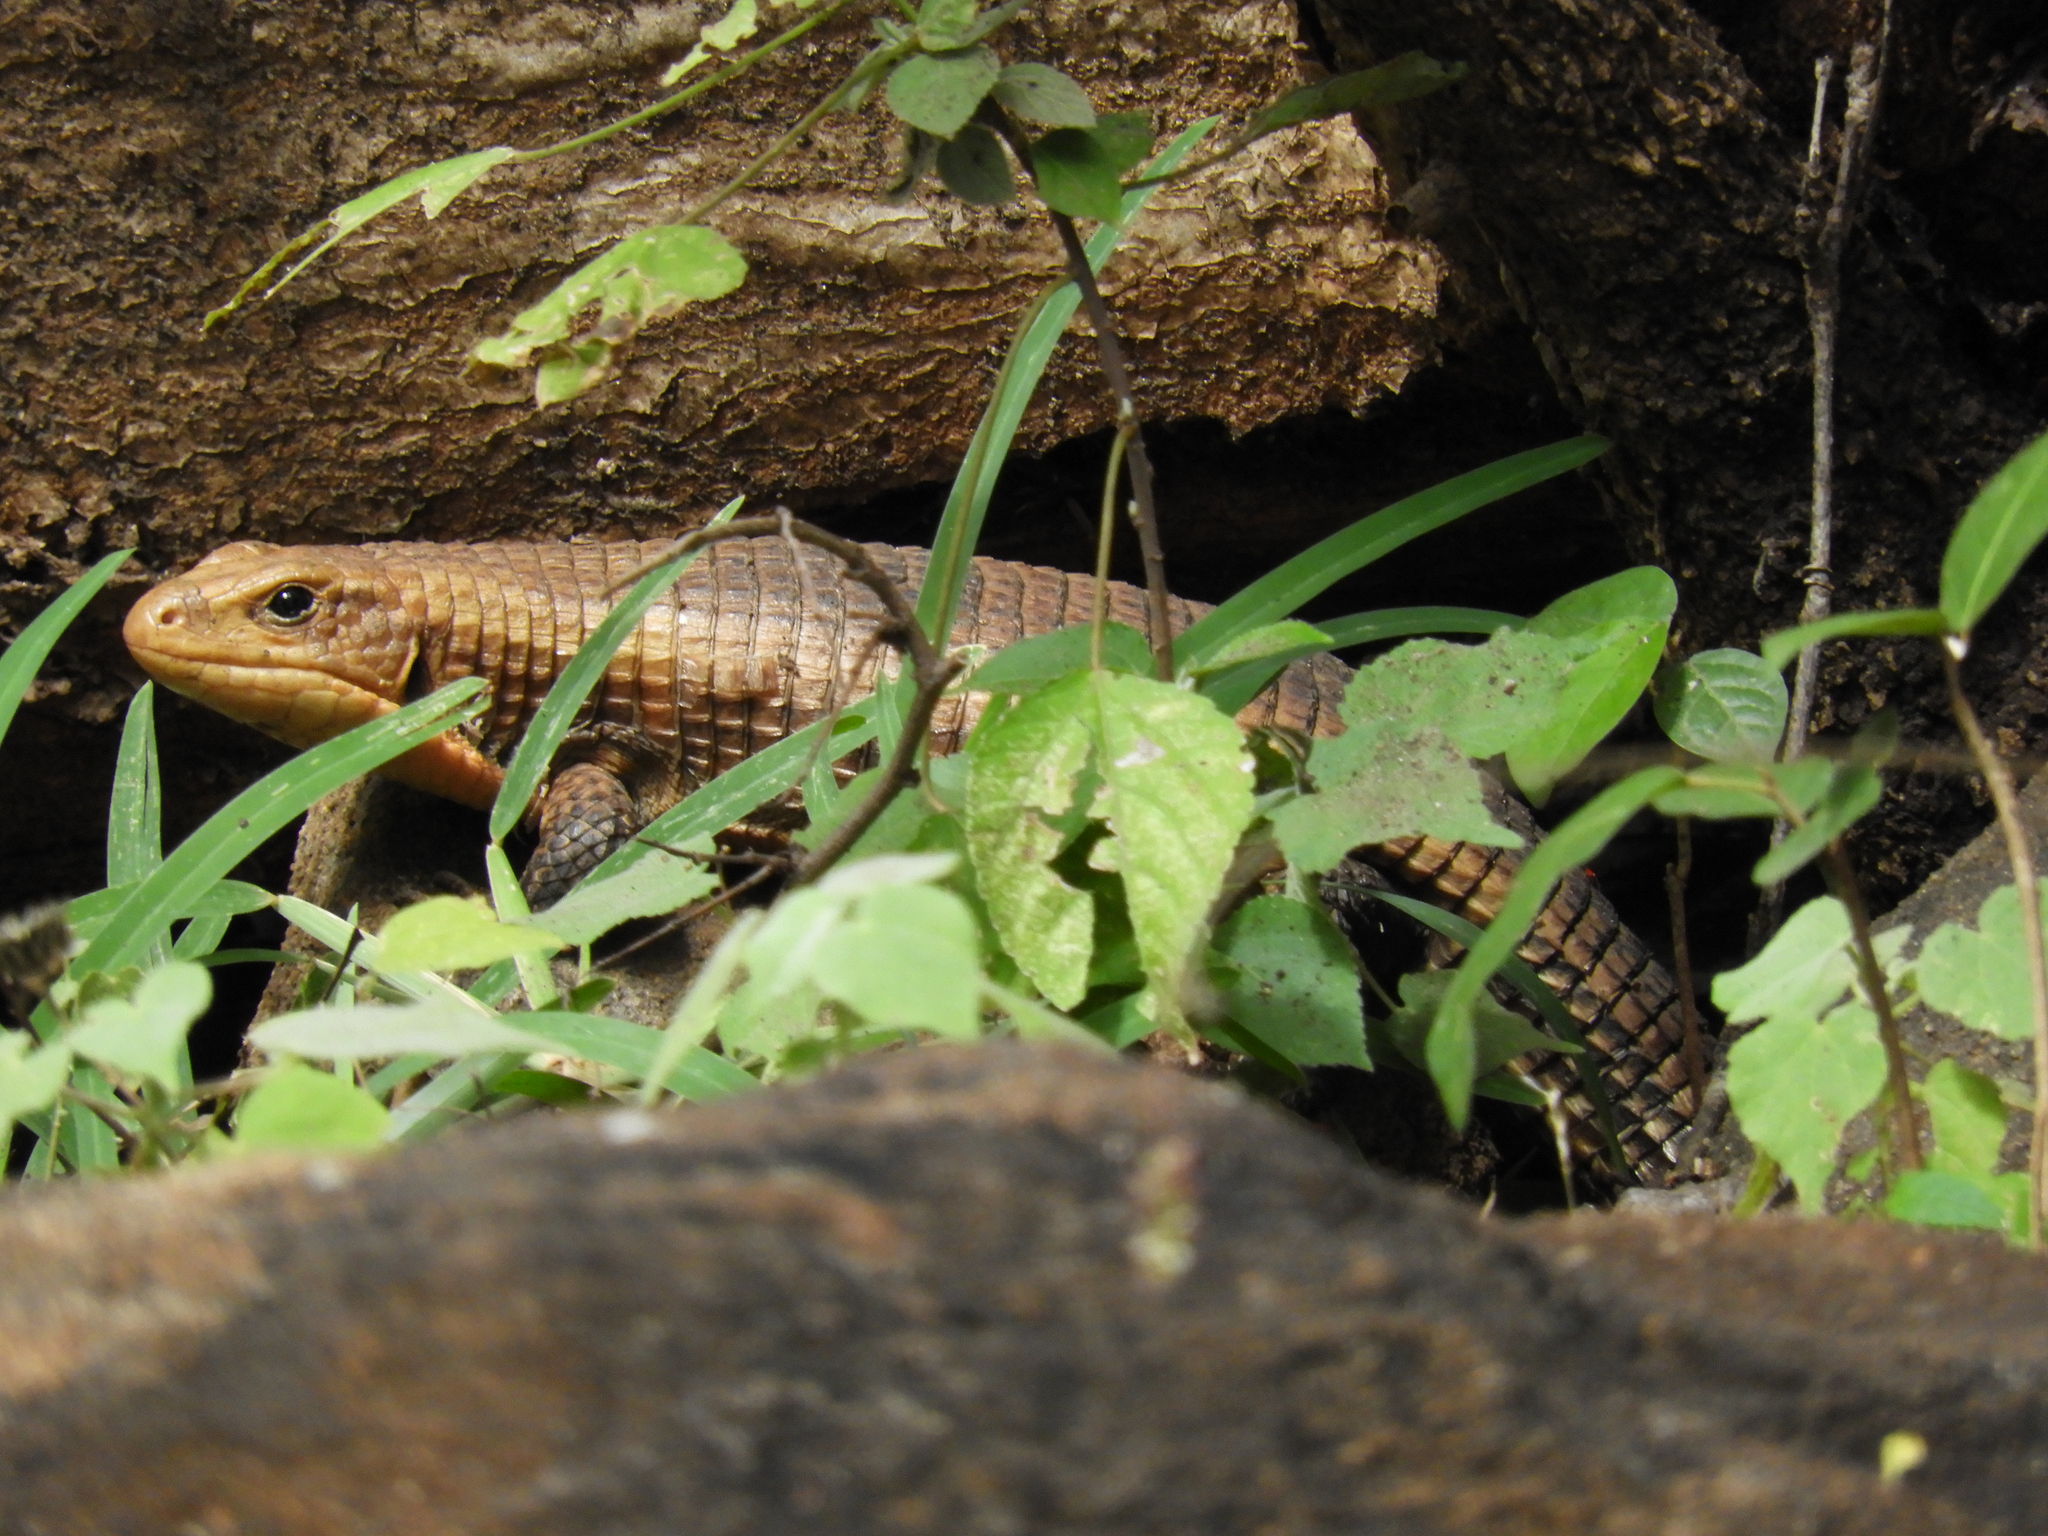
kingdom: Animalia
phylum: Chordata
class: Squamata
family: Gerrhosauridae
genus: Broadleysaurus
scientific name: Broadleysaurus major
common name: Rough-scaled plated lizard
